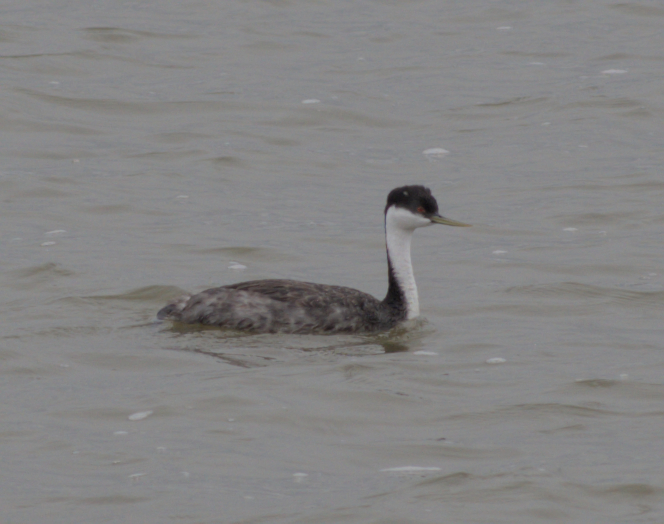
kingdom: Animalia
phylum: Chordata
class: Aves
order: Podicipediformes
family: Podicipedidae
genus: Aechmophorus
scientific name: Aechmophorus occidentalis
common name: Western grebe
